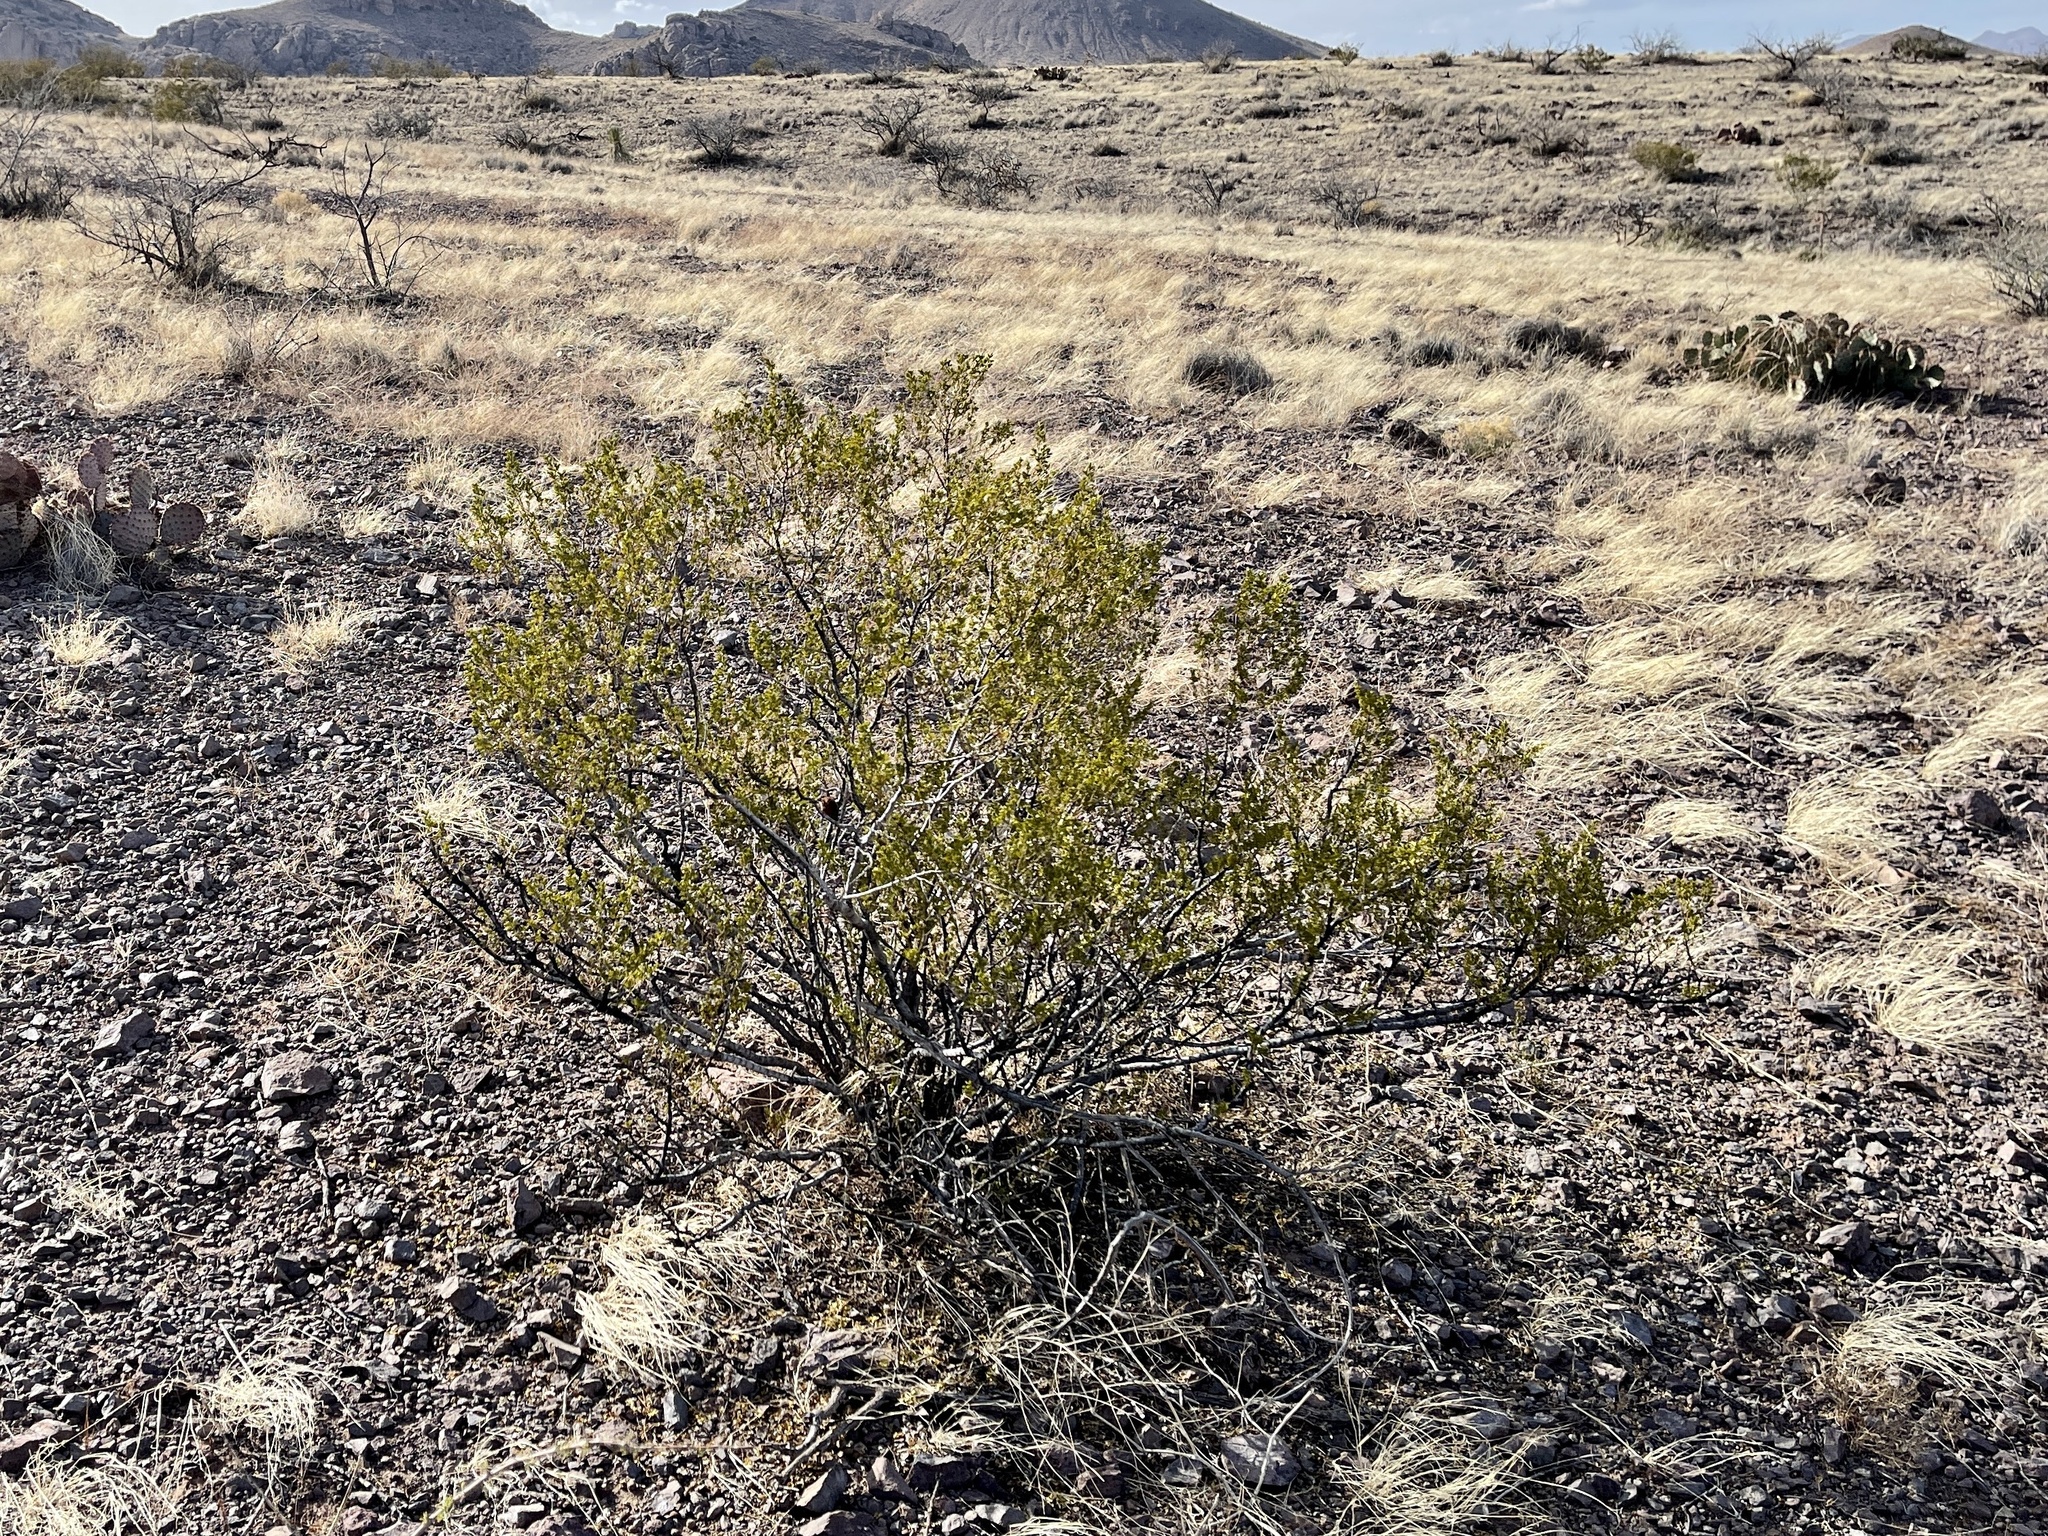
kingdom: Plantae
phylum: Tracheophyta
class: Magnoliopsida
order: Zygophyllales
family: Zygophyllaceae
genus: Larrea
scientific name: Larrea tridentata
